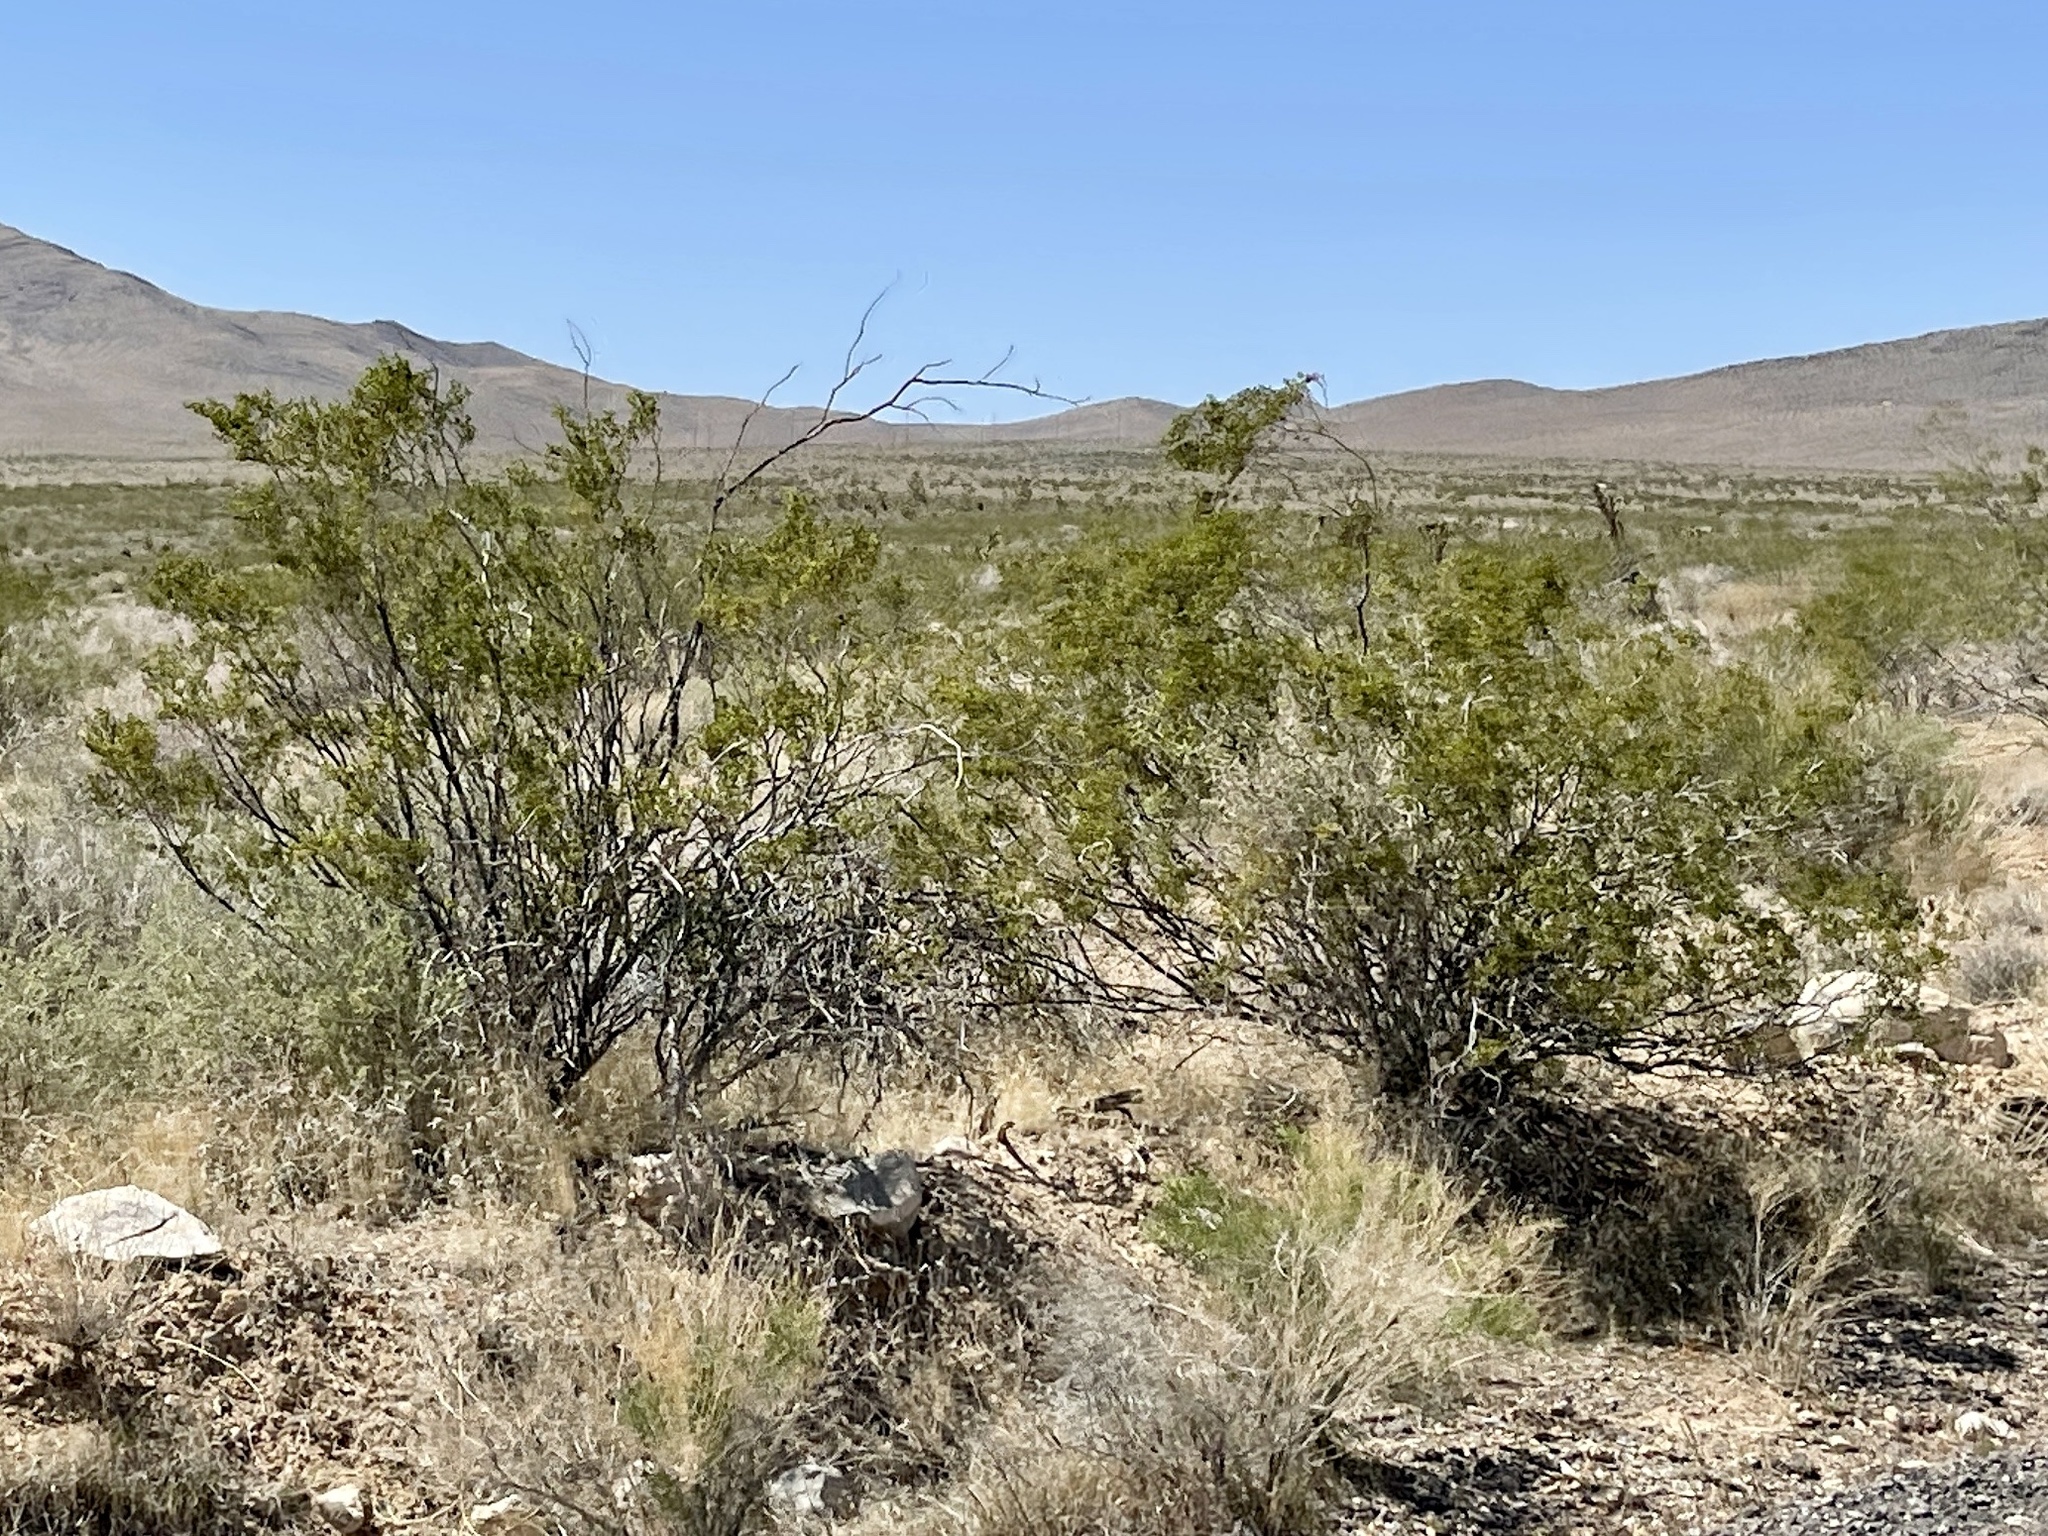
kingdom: Plantae
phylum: Tracheophyta
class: Magnoliopsida
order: Zygophyllales
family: Zygophyllaceae
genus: Larrea
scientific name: Larrea tridentata
